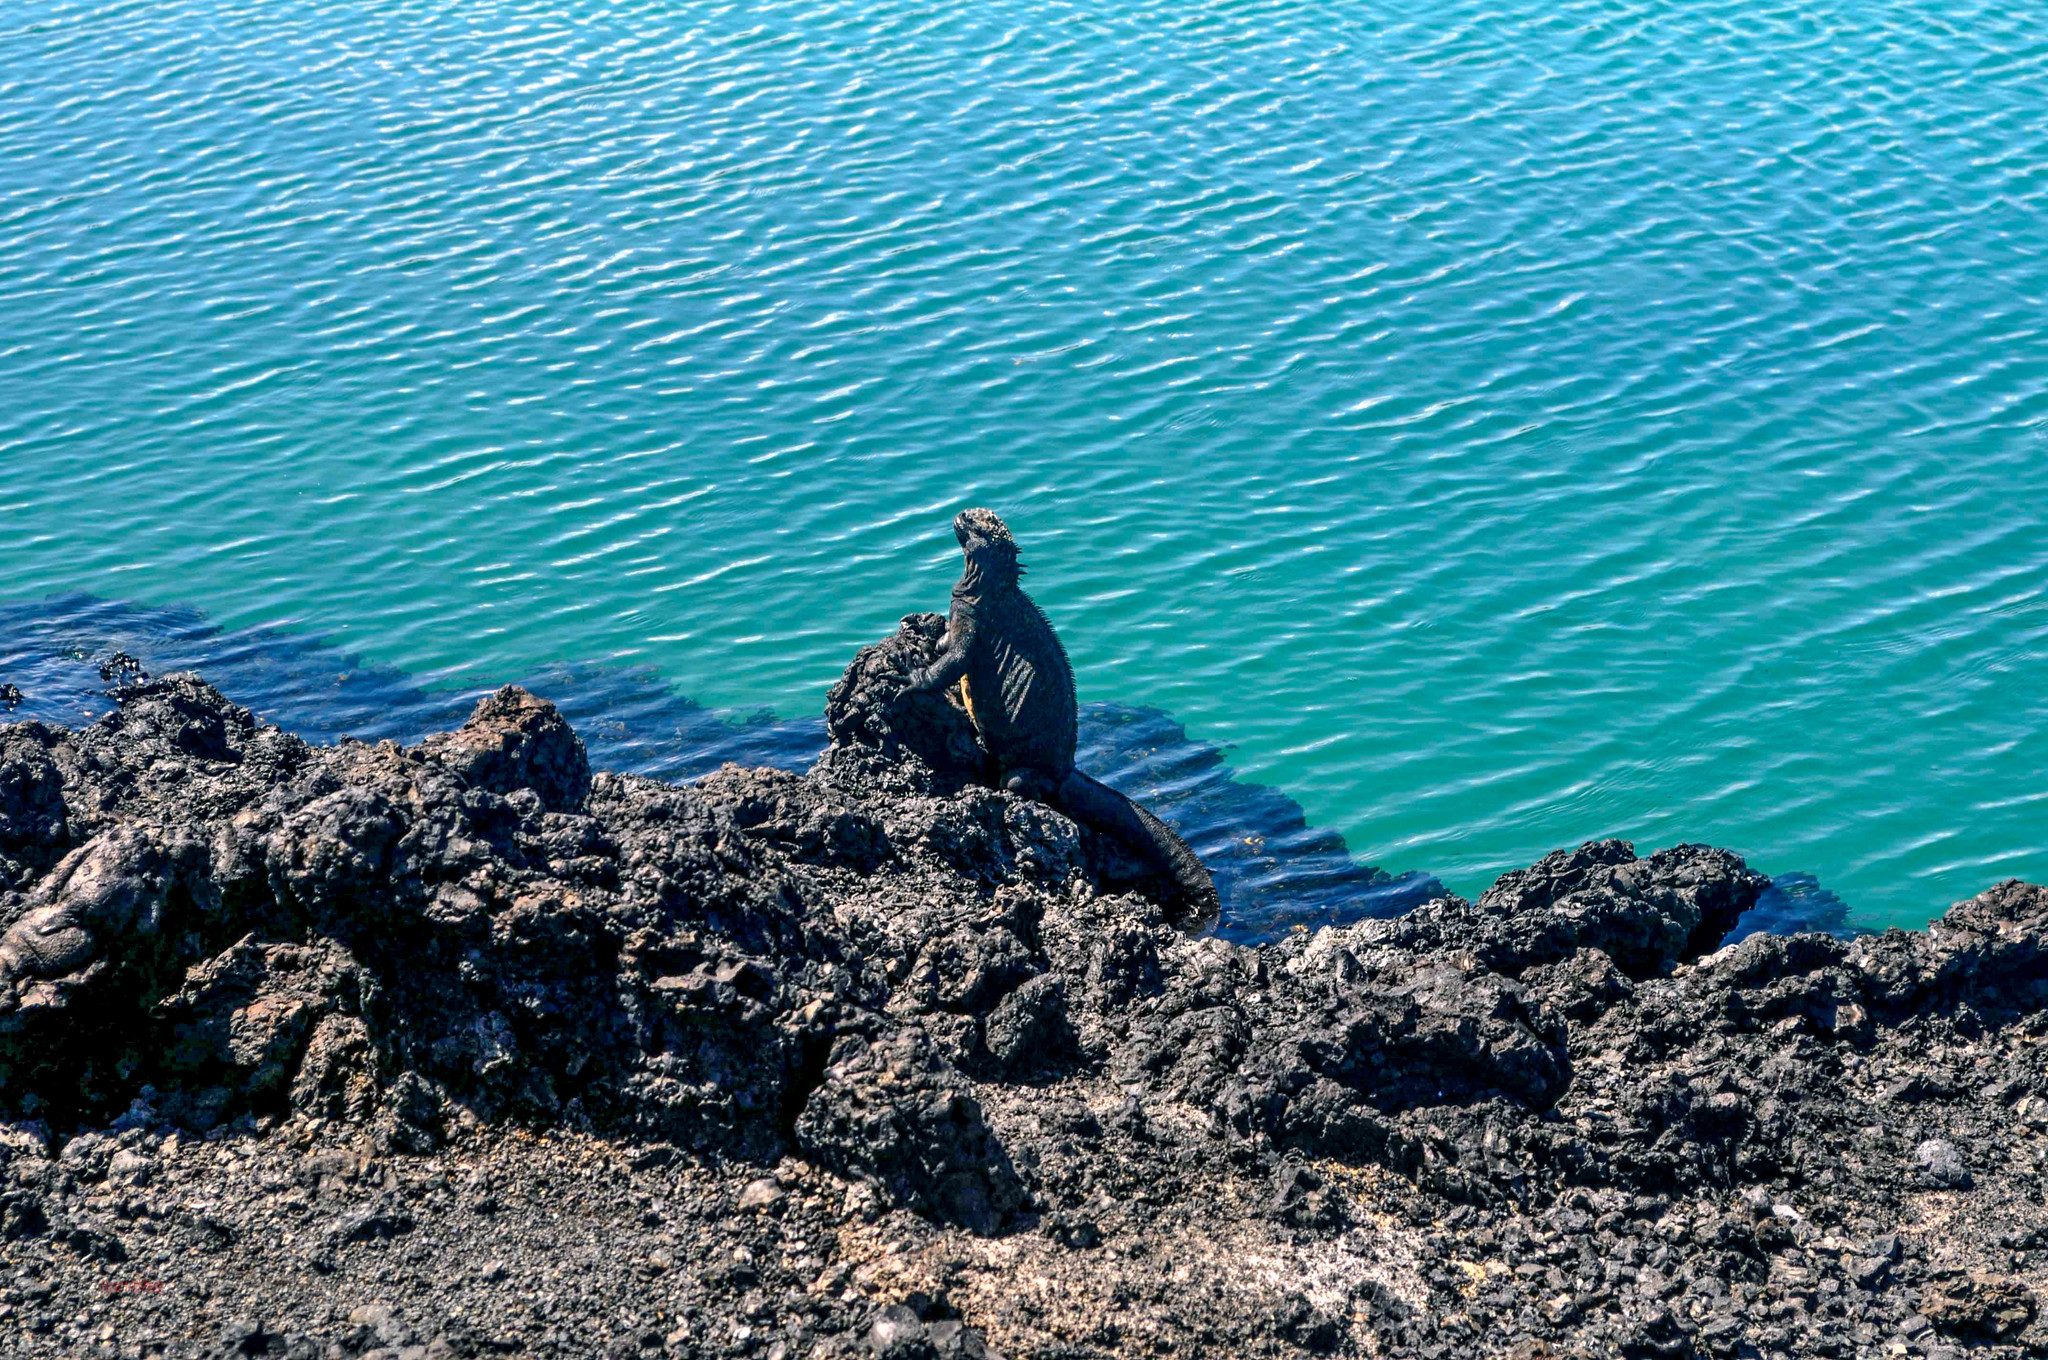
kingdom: Animalia
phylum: Chordata
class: Squamata
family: Iguanidae
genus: Amblyrhynchus
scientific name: Amblyrhynchus cristatus
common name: Marine iguana
